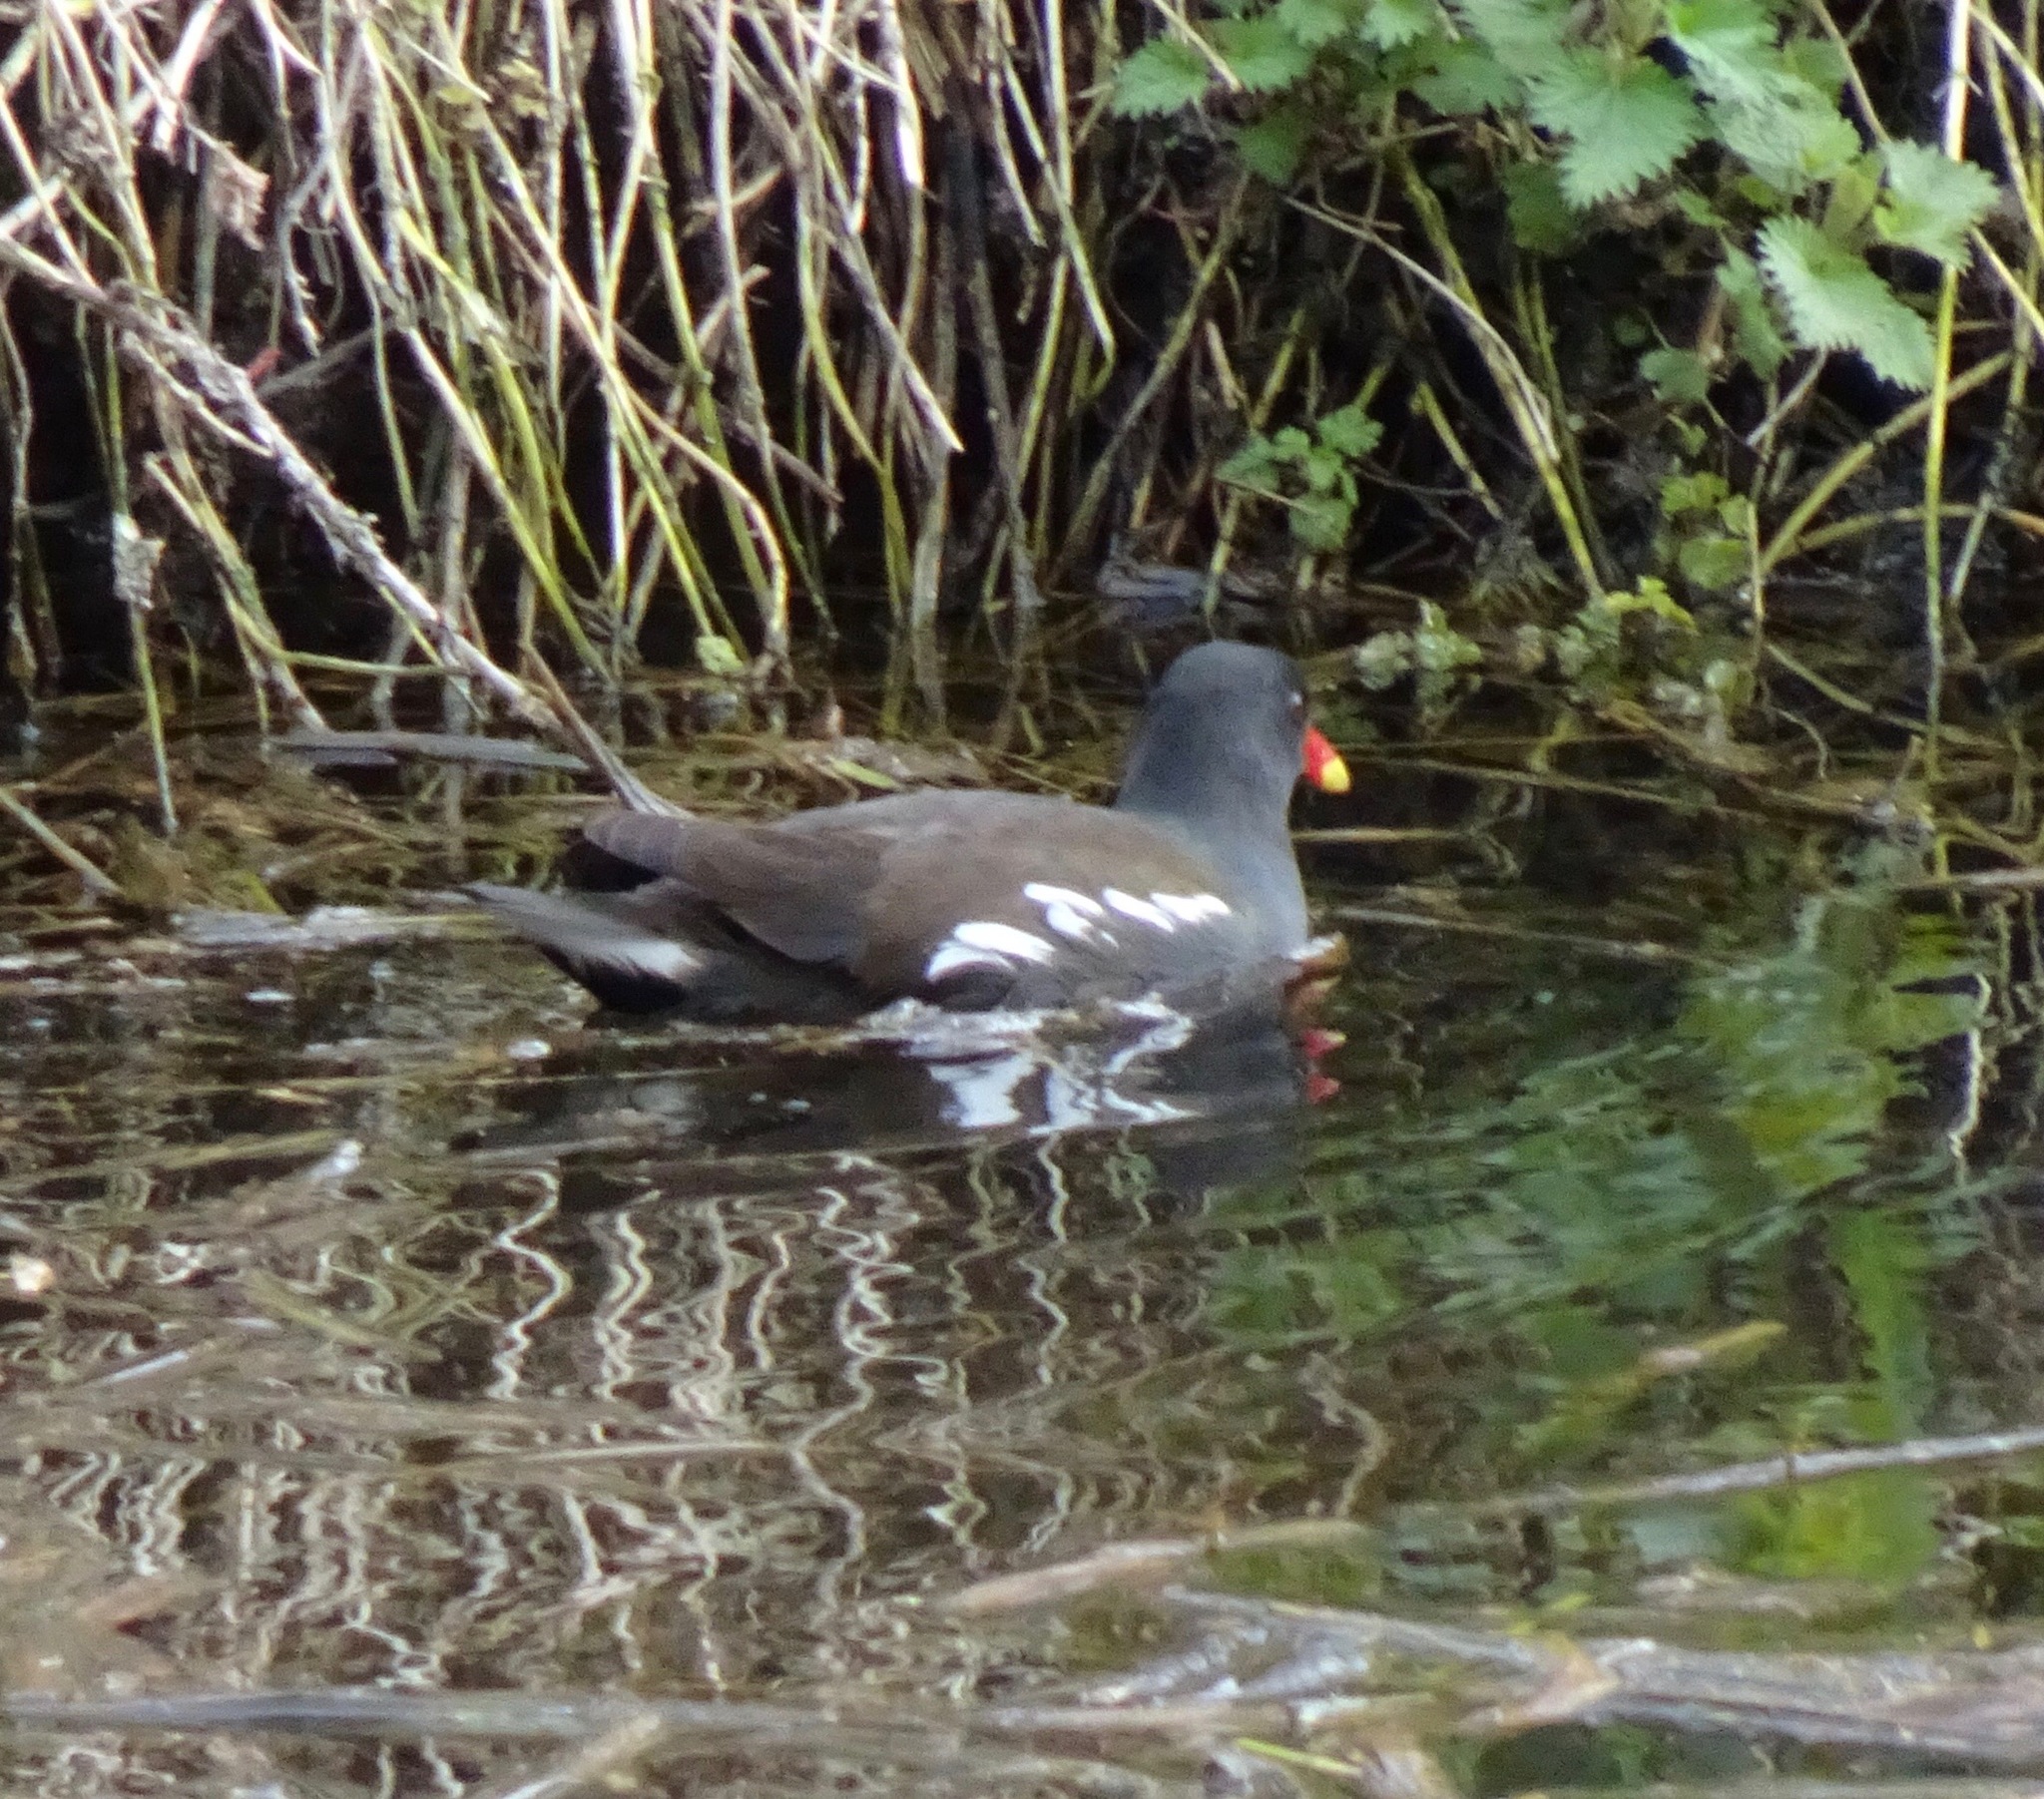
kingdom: Animalia
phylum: Chordata
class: Aves
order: Gruiformes
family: Rallidae
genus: Gallinula
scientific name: Gallinula chloropus
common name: Common moorhen
